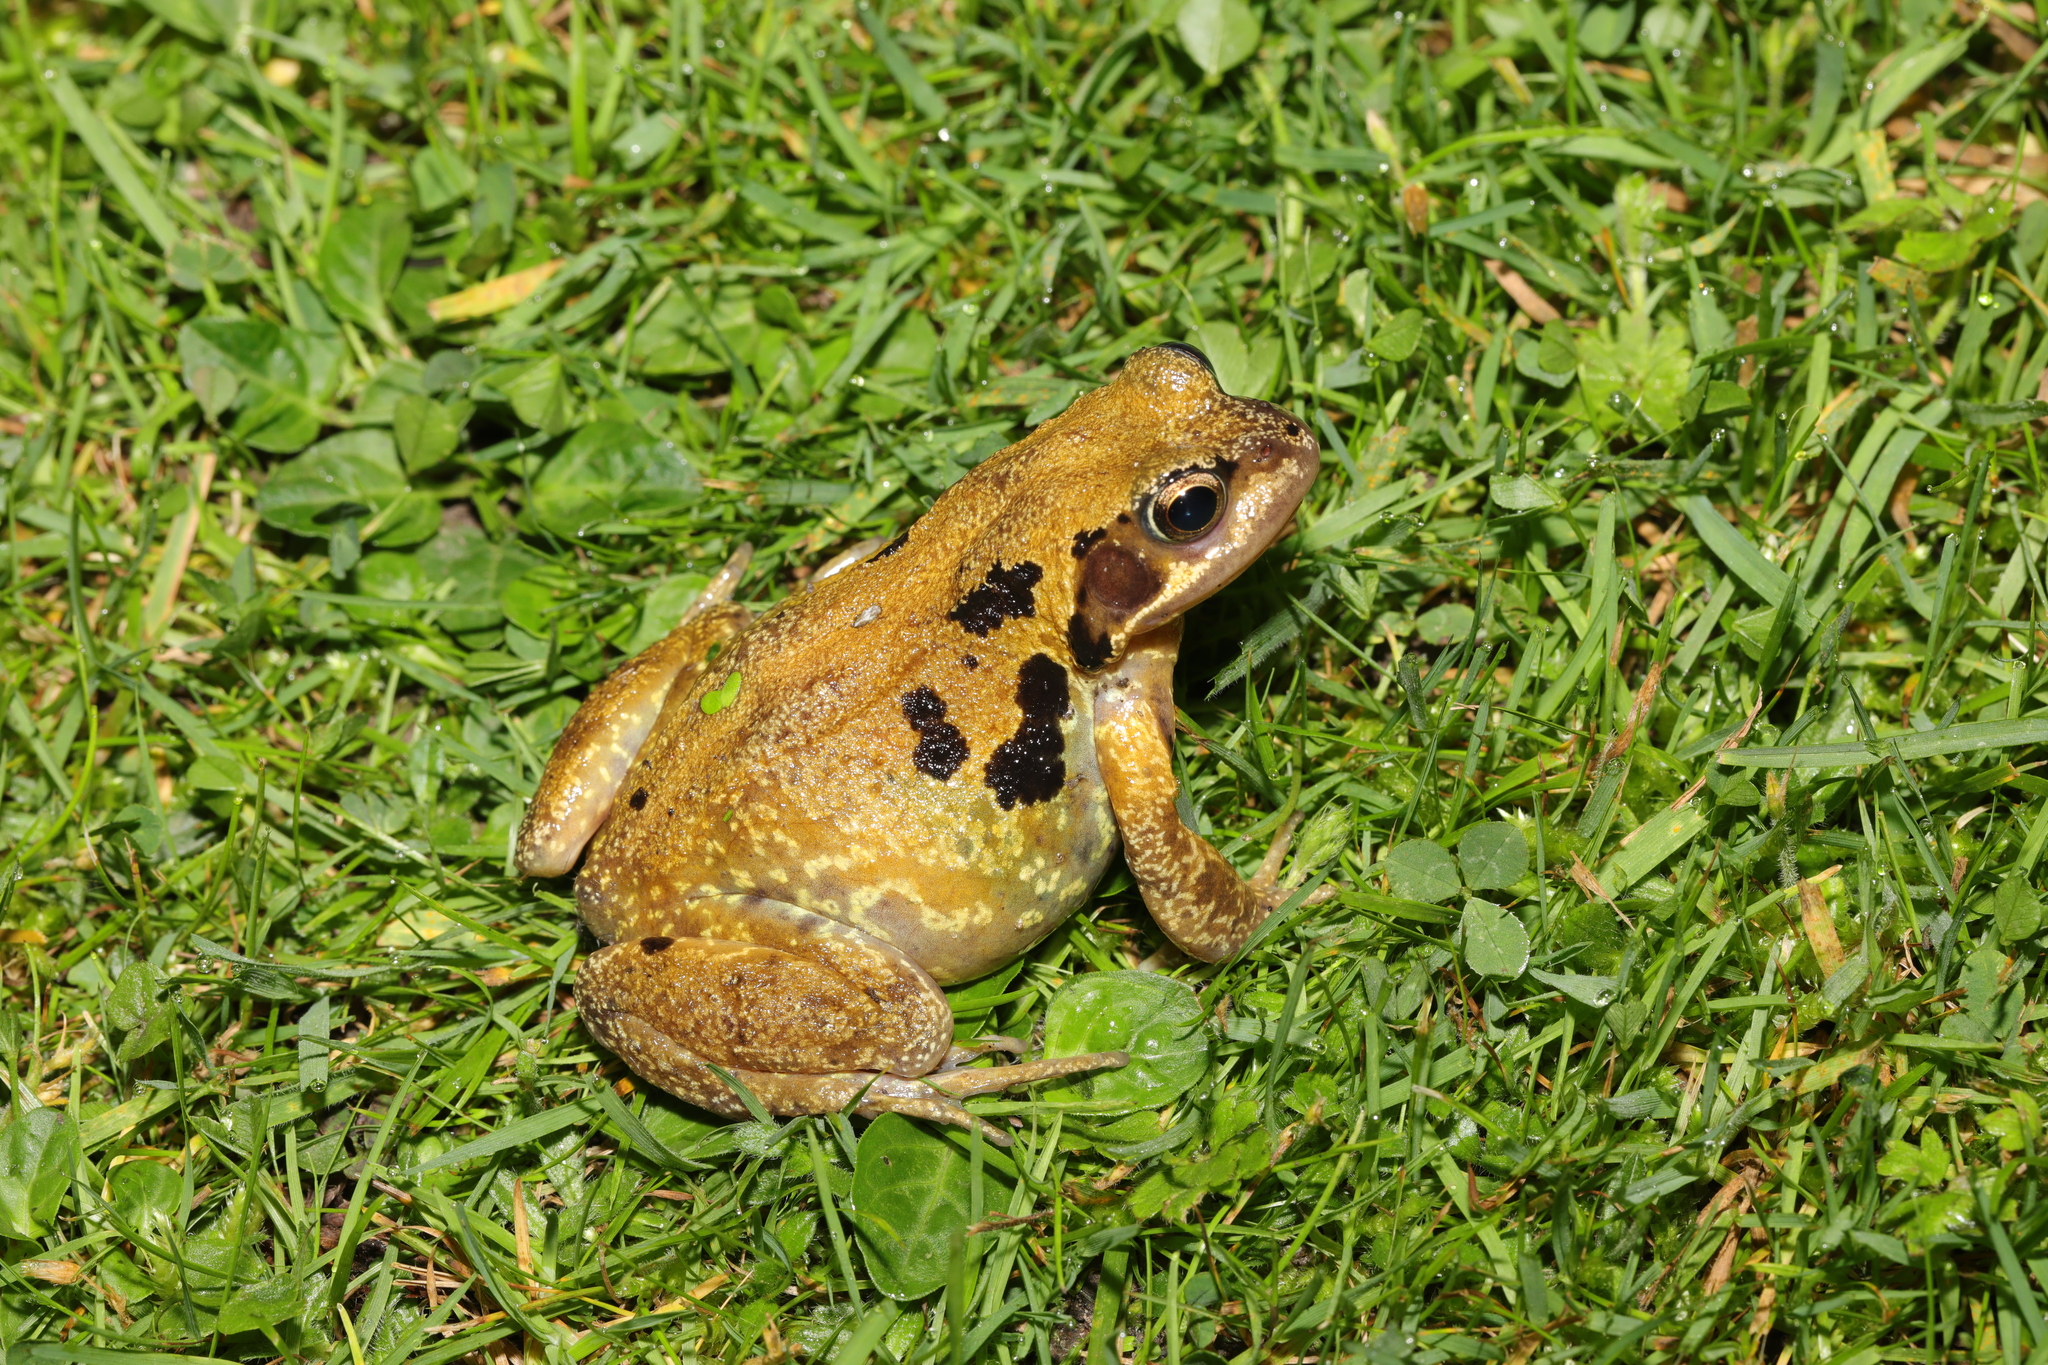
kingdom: Animalia
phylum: Chordata
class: Amphibia
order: Anura
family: Ranidae
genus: Rana
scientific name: Rana temporaria
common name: Common frog
